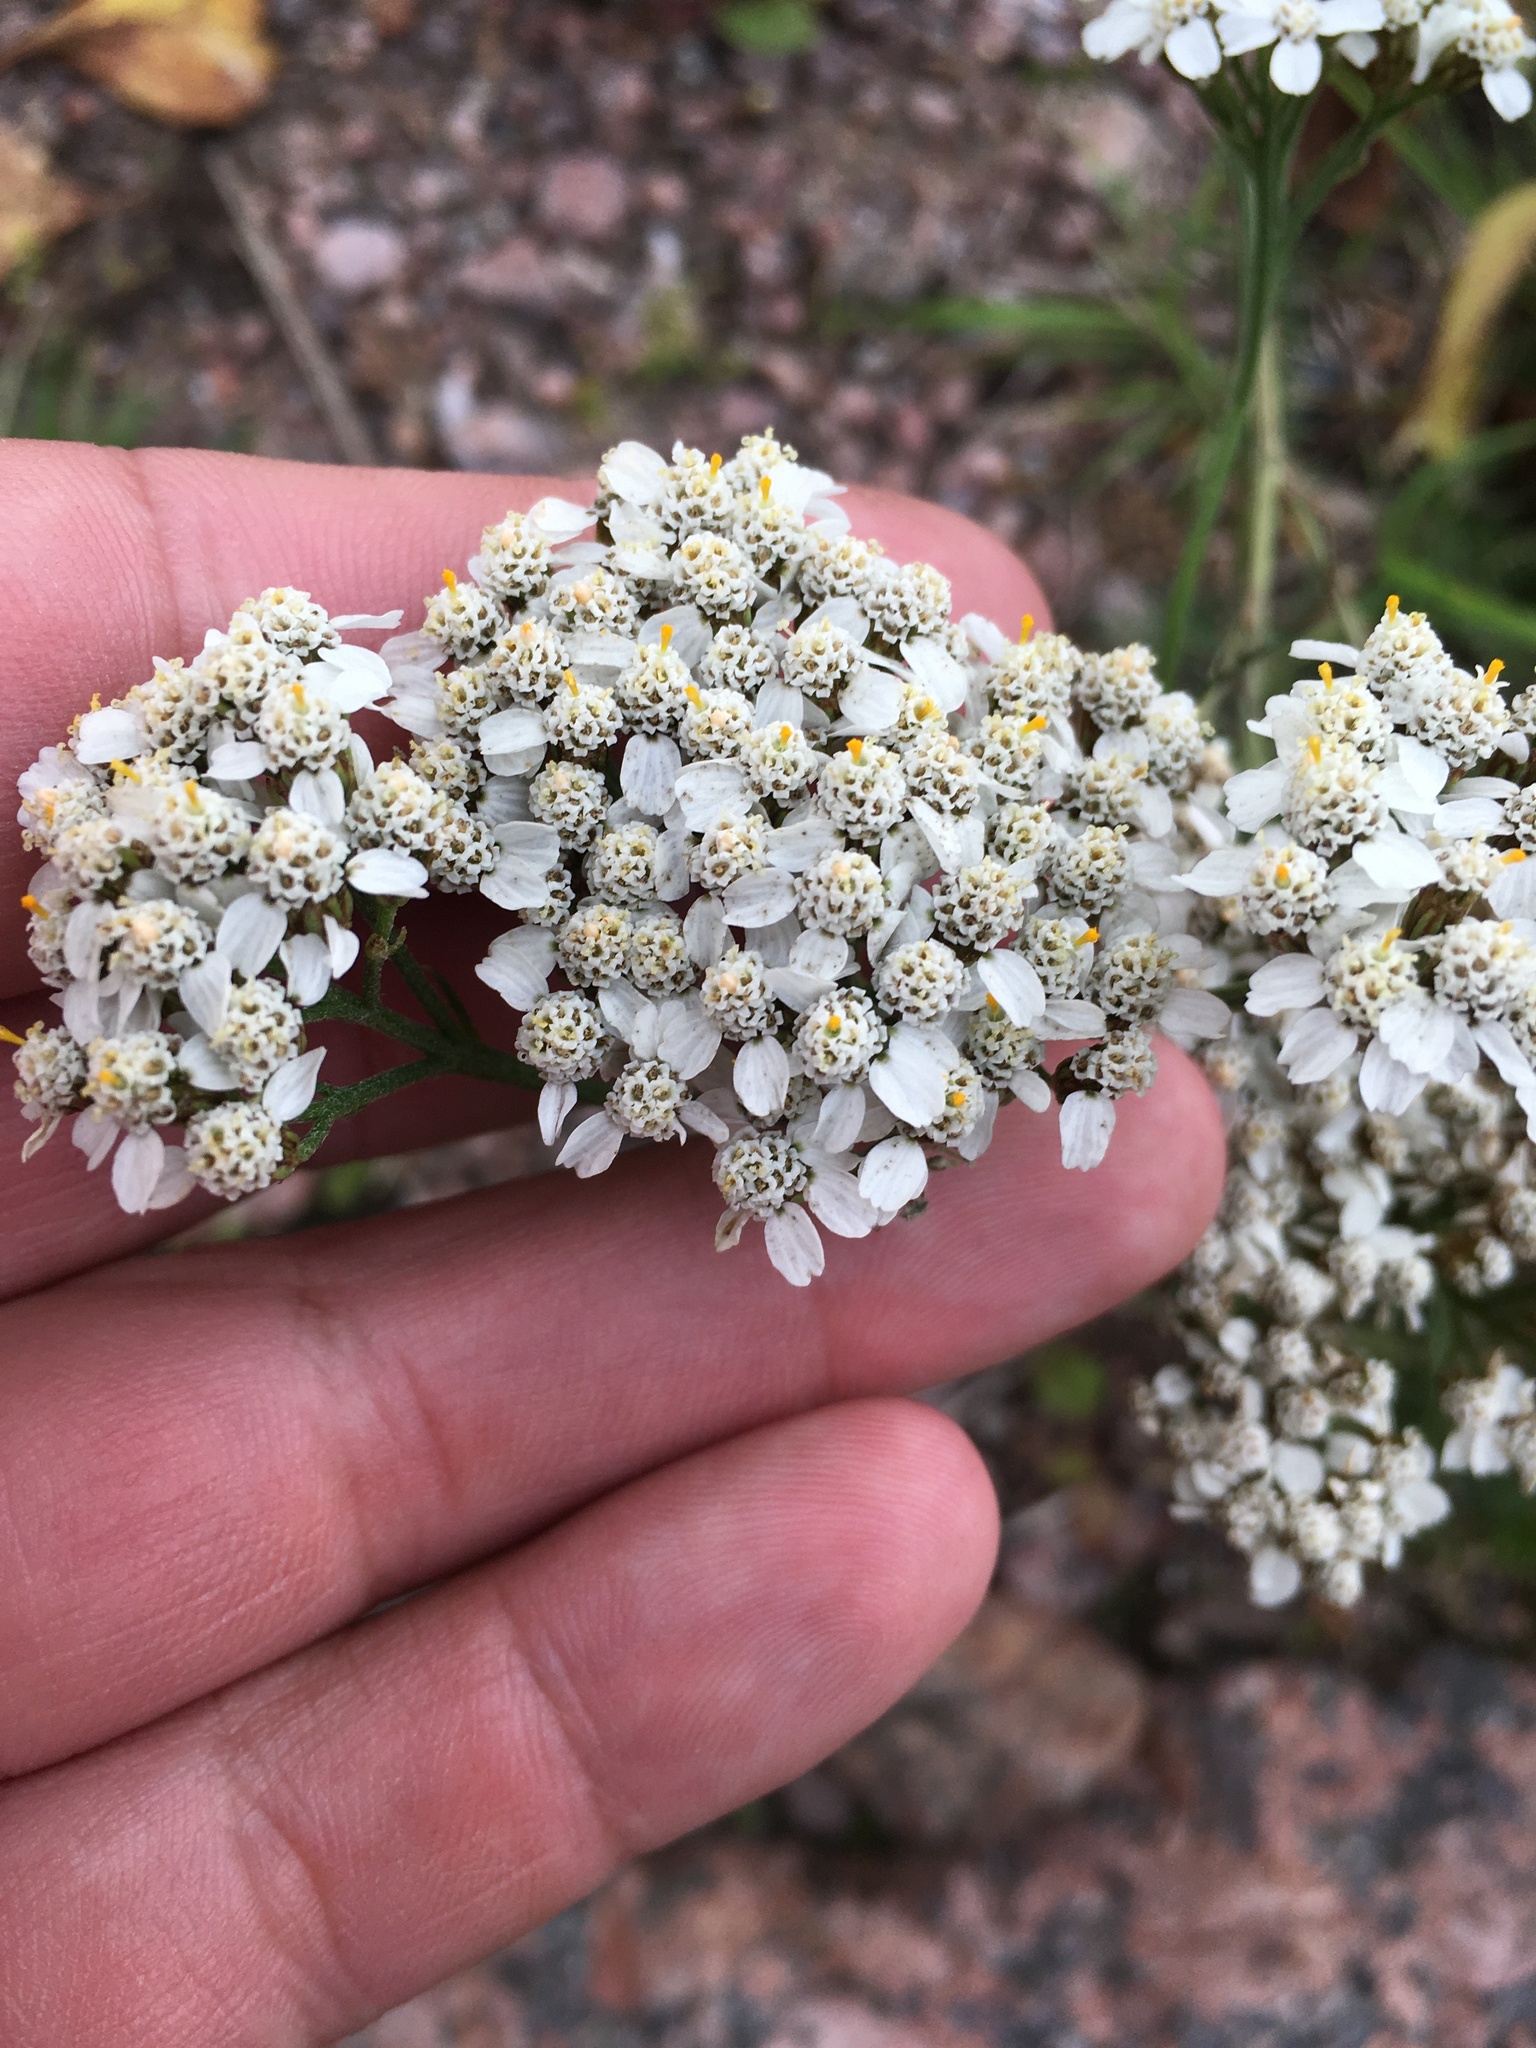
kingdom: Plantae
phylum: Tracheophyta
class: Magnoliopsida
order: Asterales
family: Asteraceae
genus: Achillea
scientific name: Achillea millefolium
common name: Yarrow
